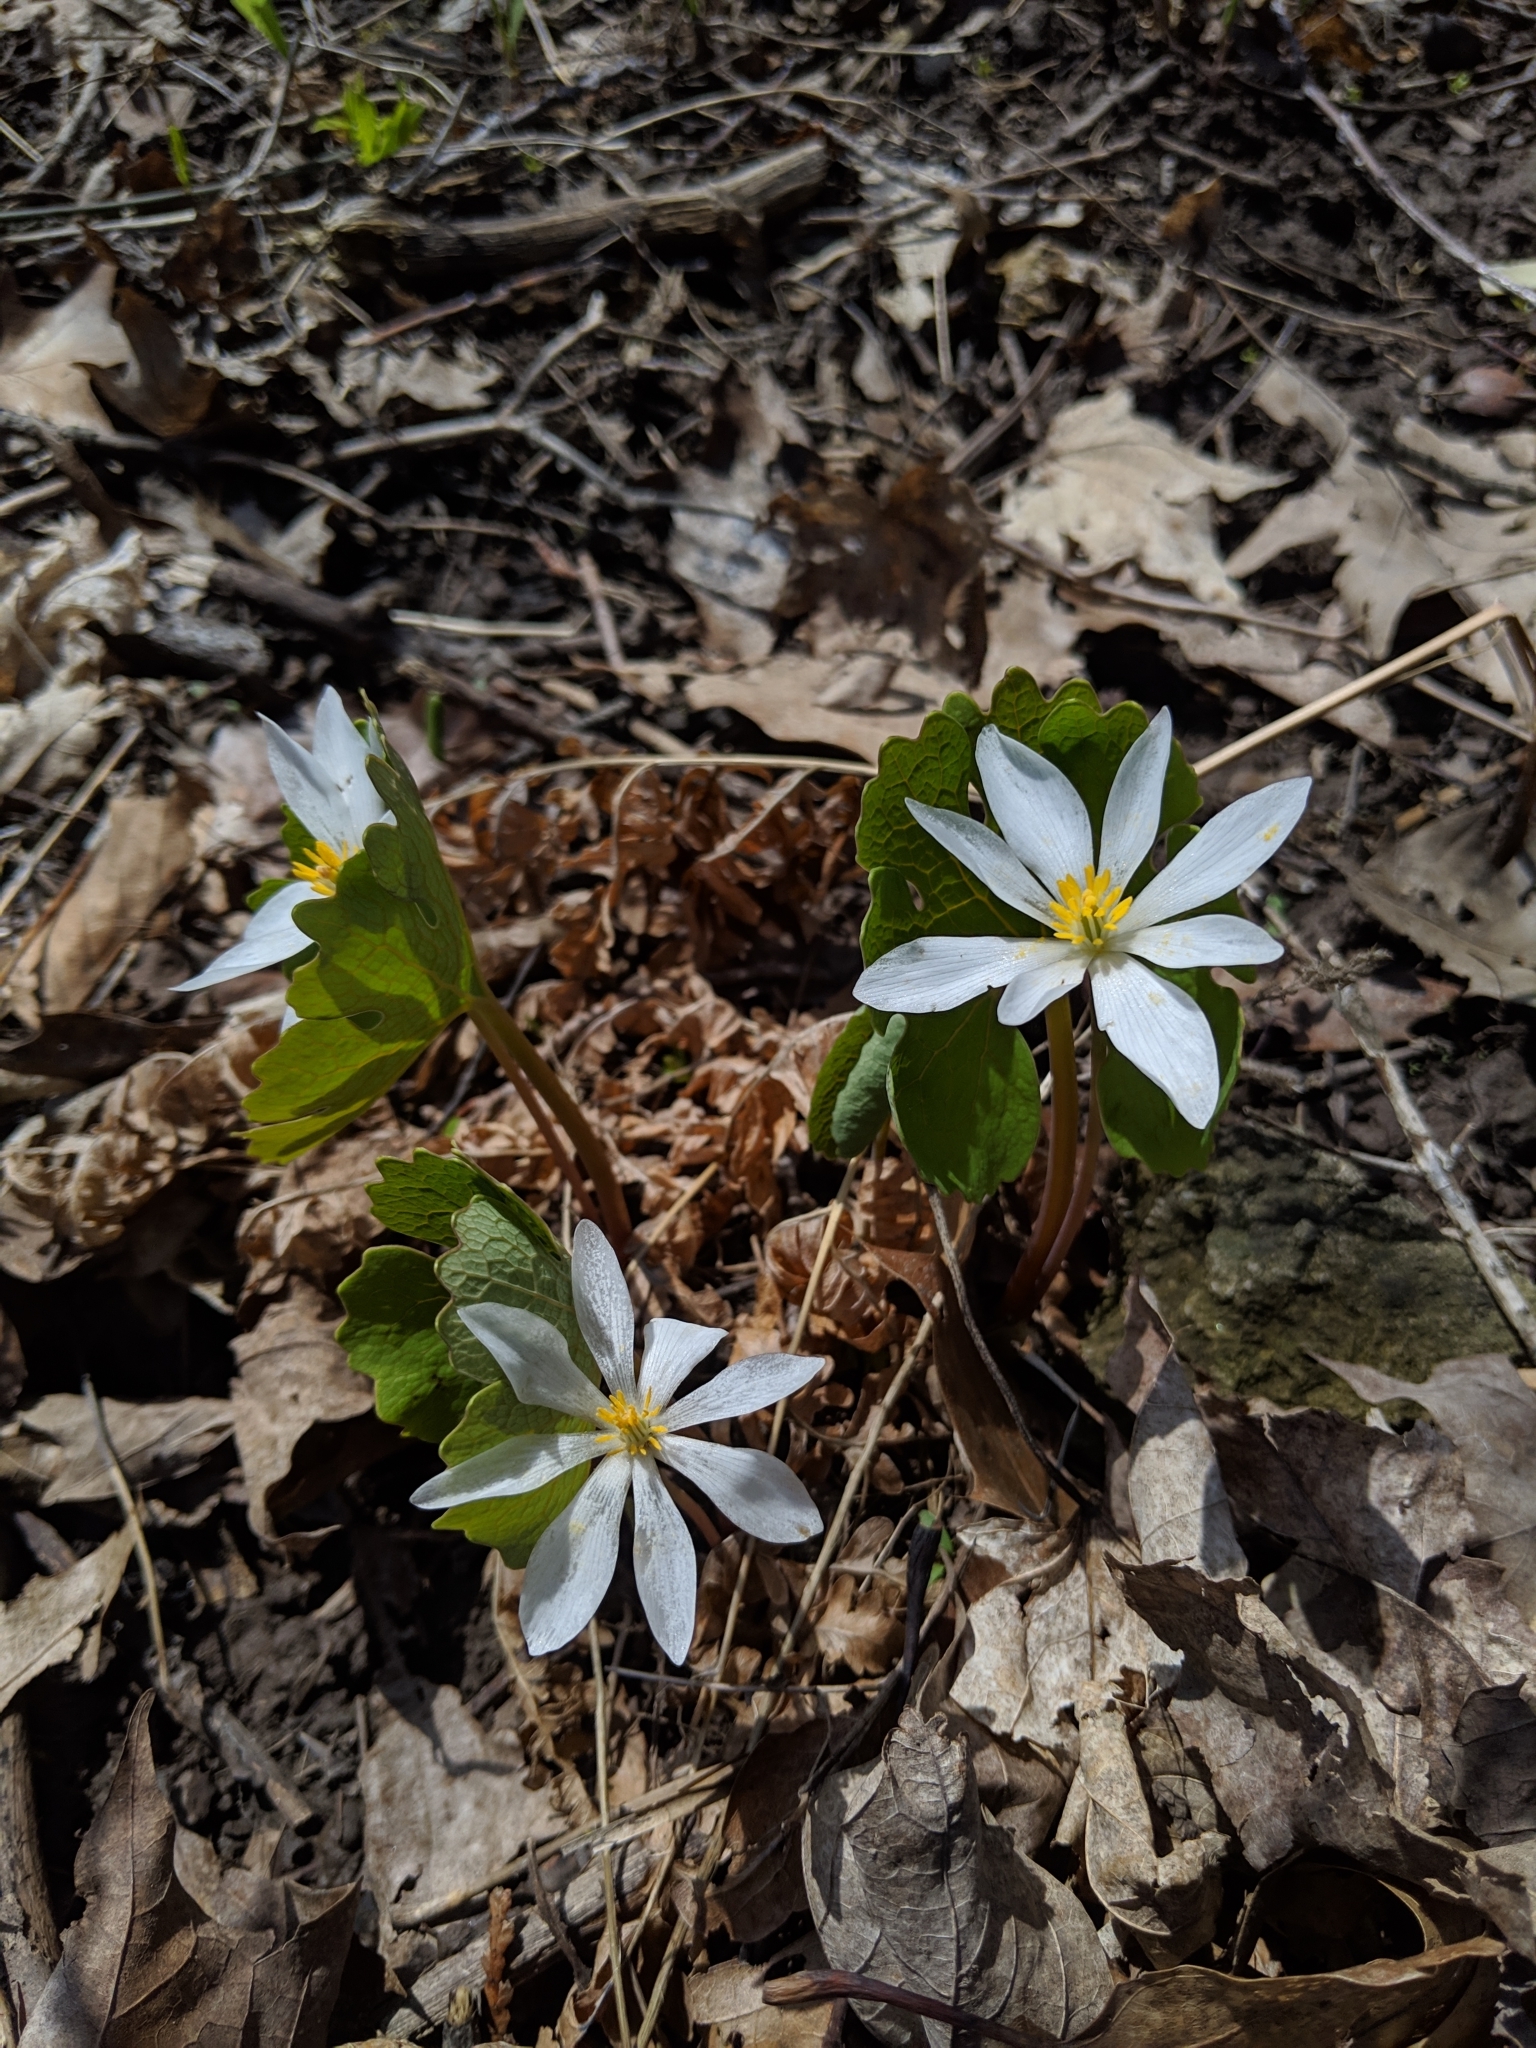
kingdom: Plantae
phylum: Tracheophyta
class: Magnoliopsida
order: Ranunculales
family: Papaveraceae
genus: Sanguinaria
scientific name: Sanguinaria canadensis
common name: Bloodroot
